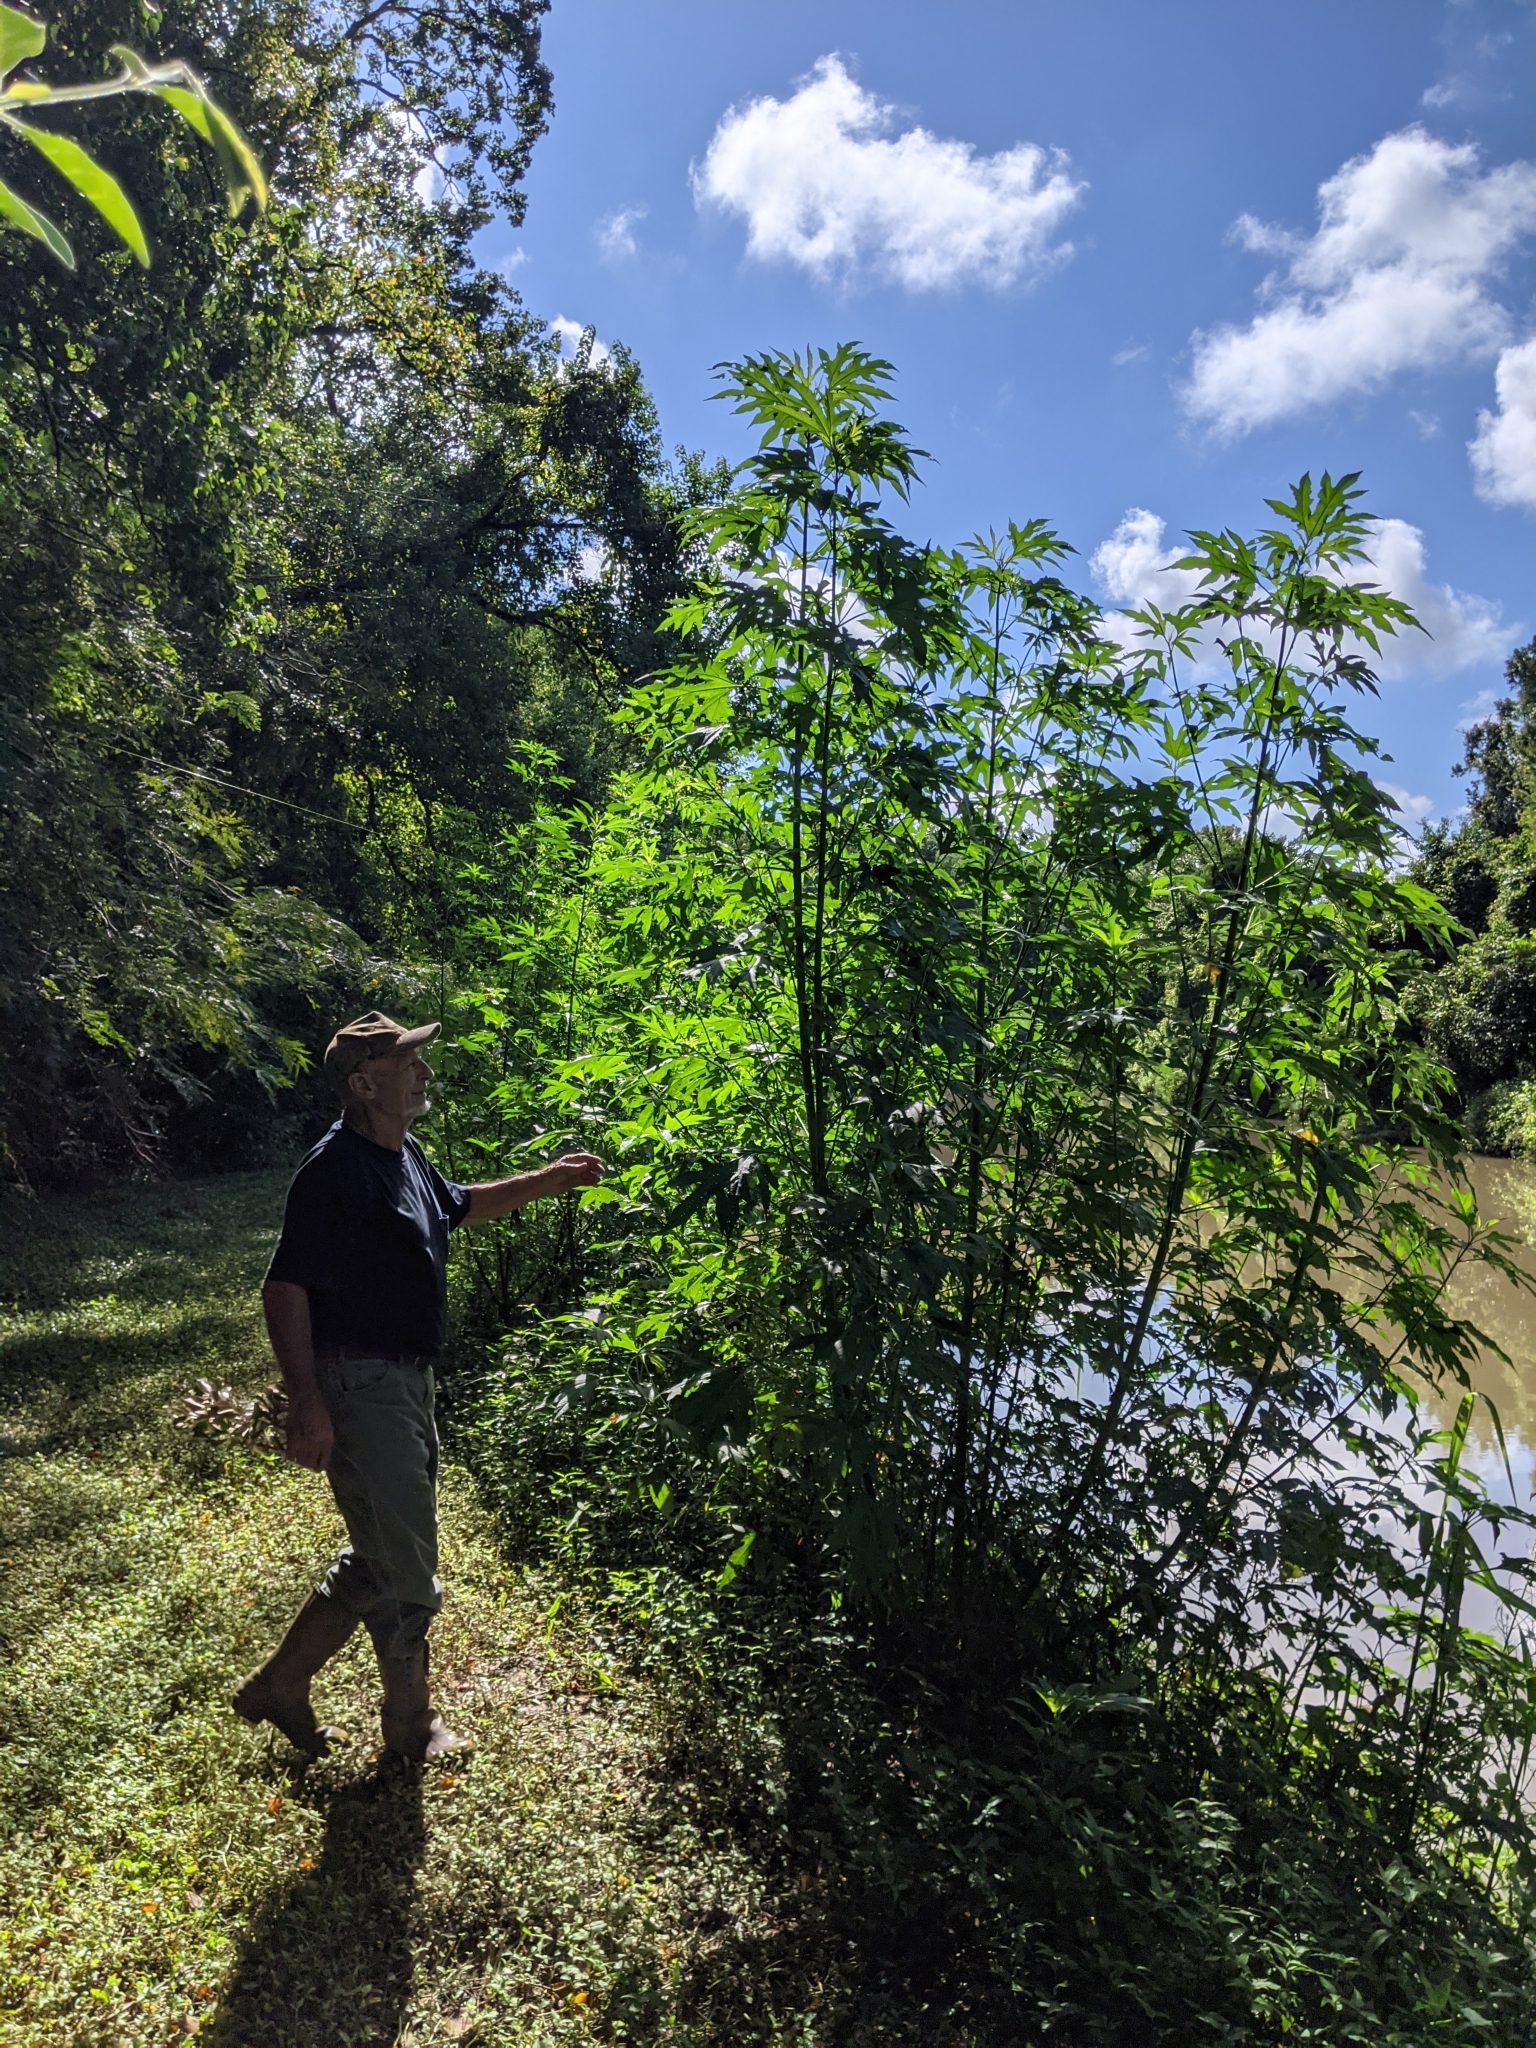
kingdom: Plantae
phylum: Tracheophyta
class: Magnoliopsida
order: Asterales
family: Asteraceae
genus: Ambrosia
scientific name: Ambrosia trifida
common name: Giant ragweed
